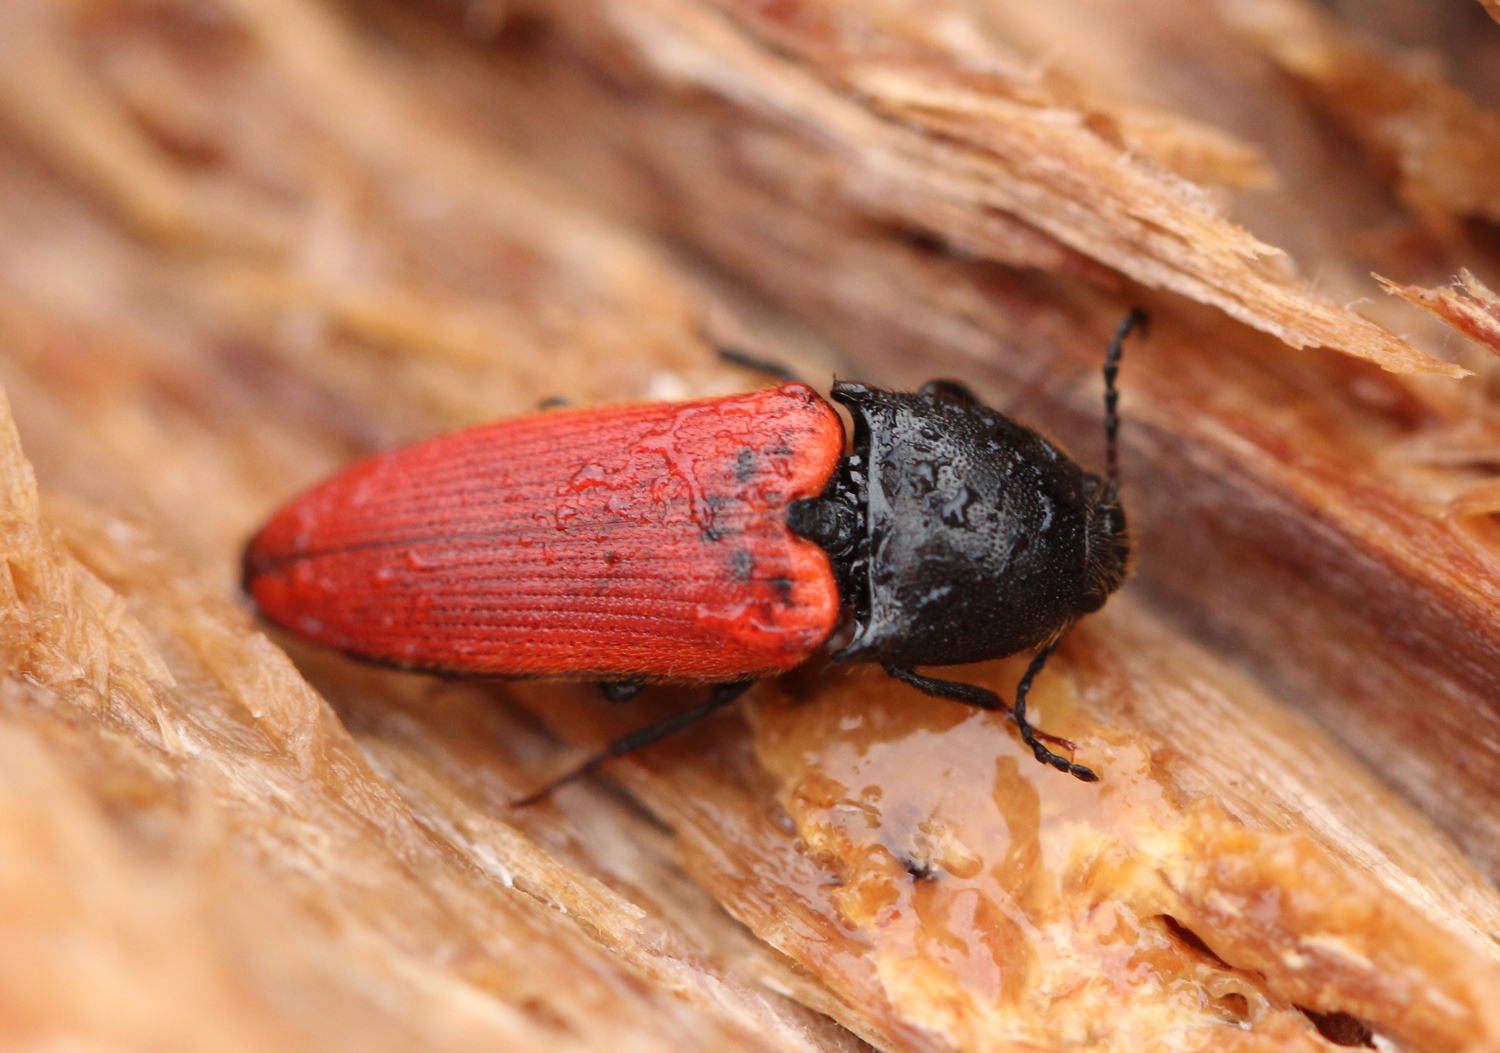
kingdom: Animalia
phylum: Arthropoda
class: Insecta
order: Coleoptera
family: Elateridae
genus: Ampedus
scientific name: Ampedus cinnabarinus
